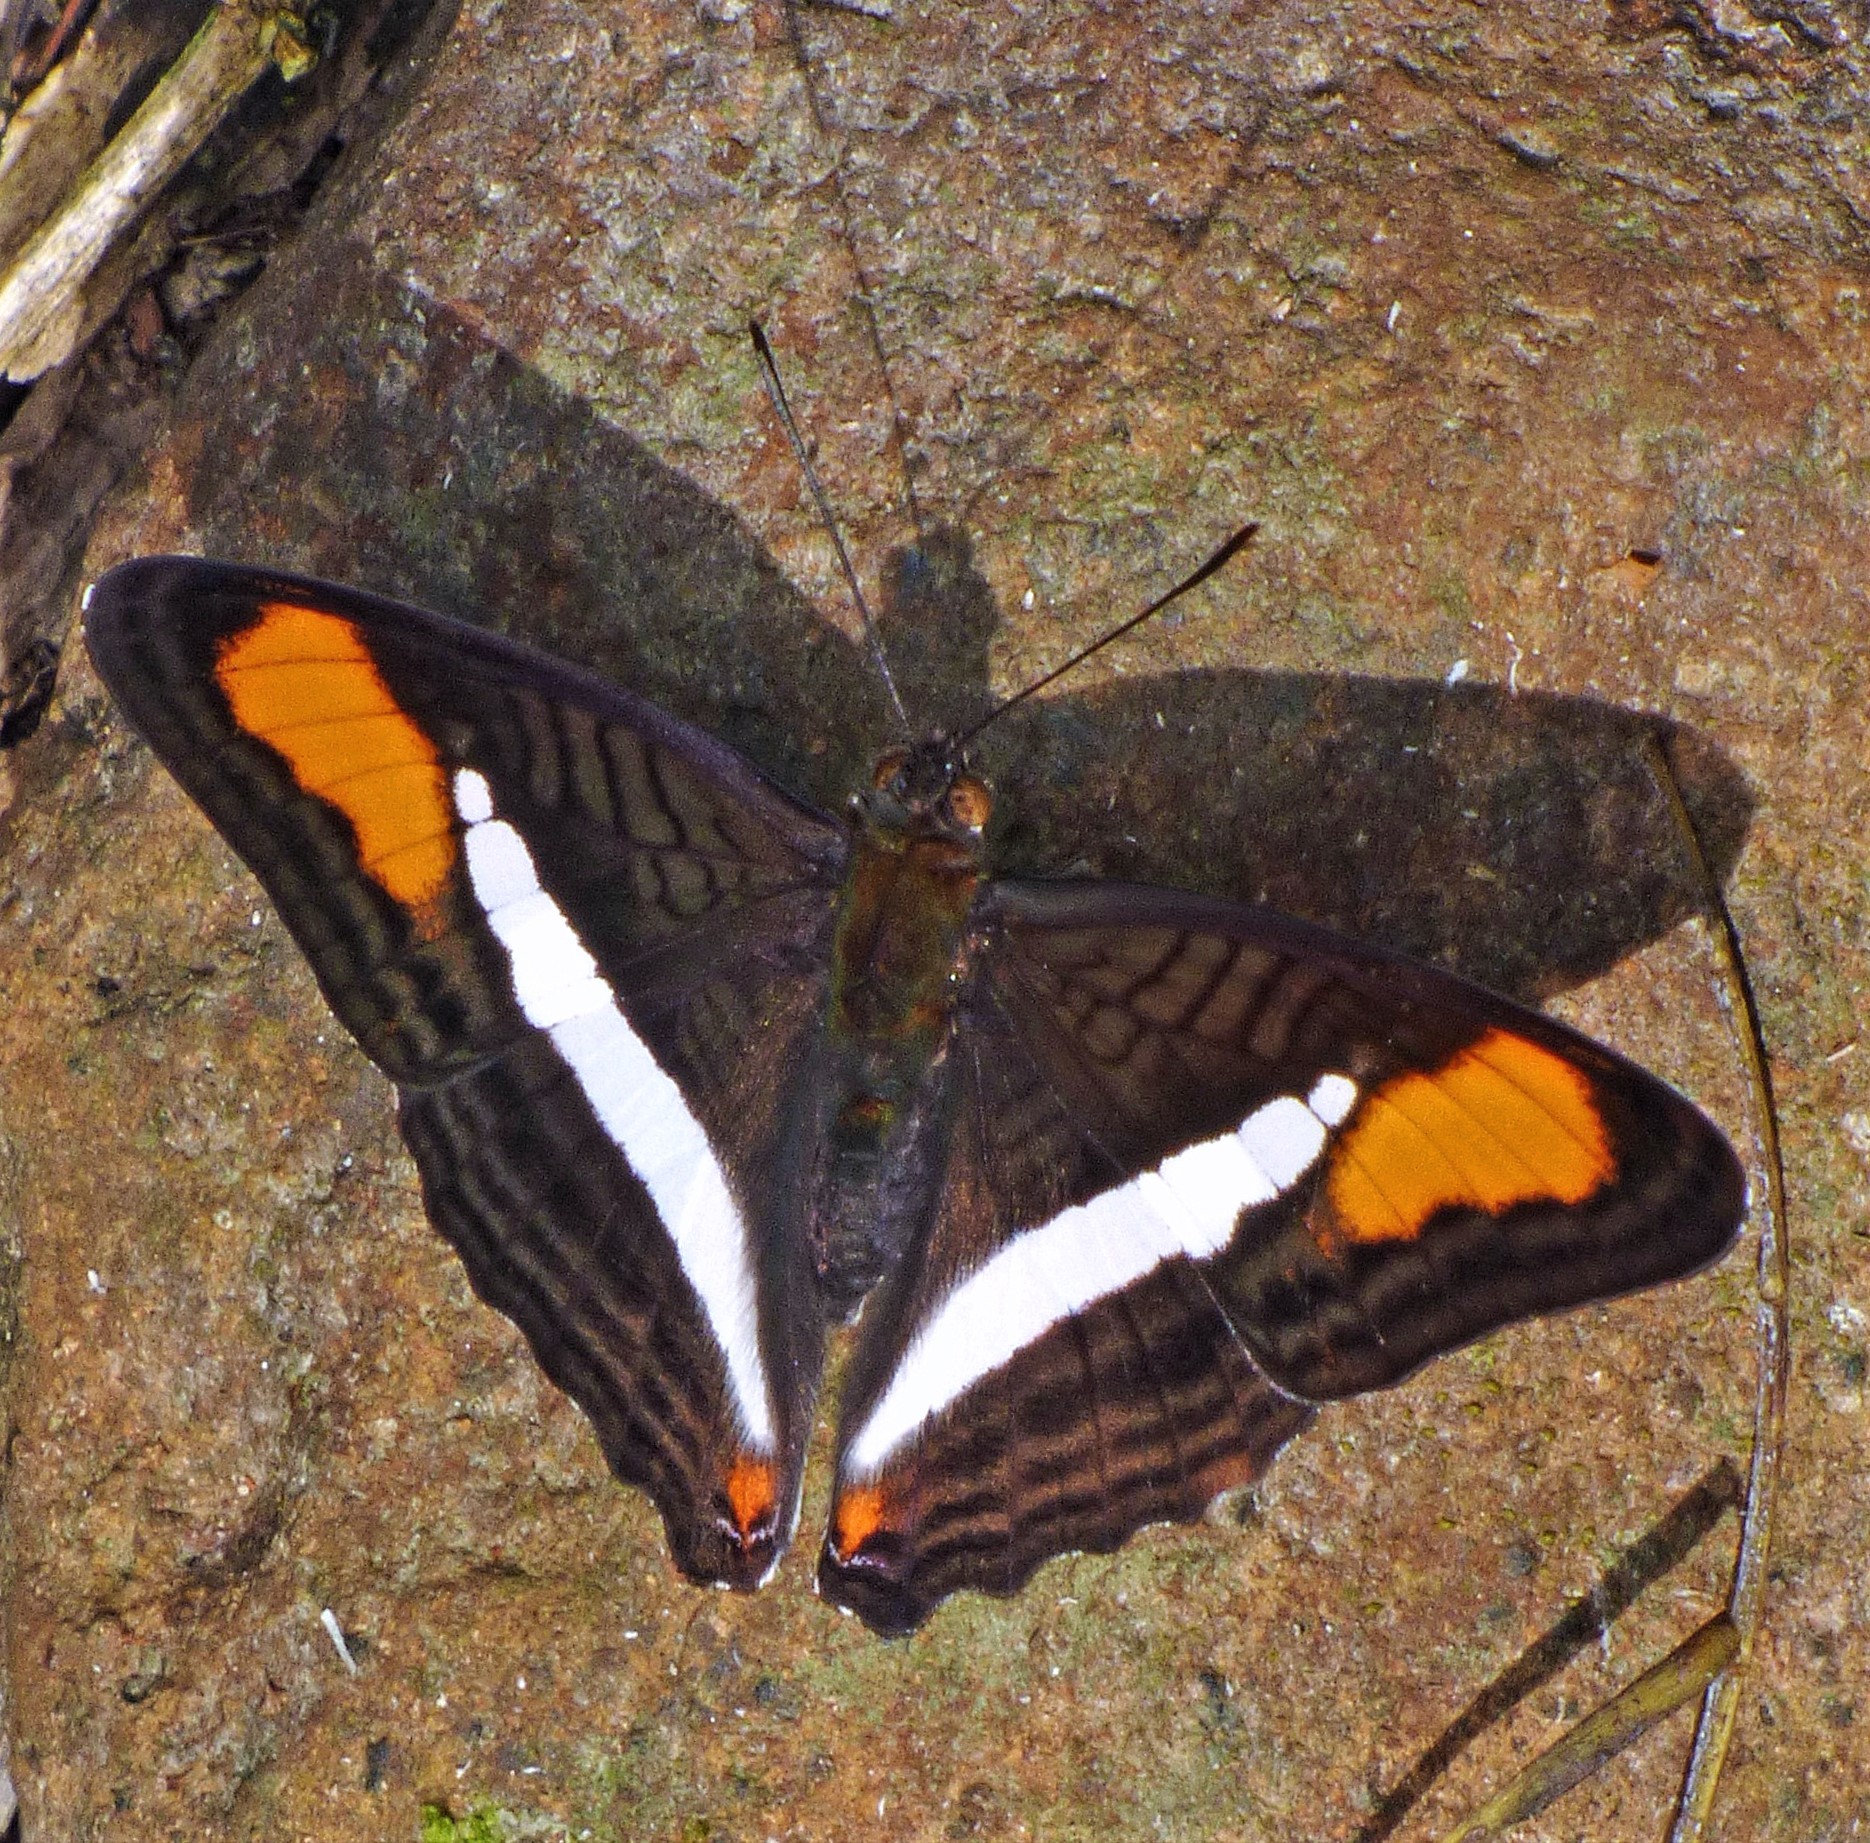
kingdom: Animalia
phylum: Arthropoda
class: Insecta
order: Lepidoptera
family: Nymphalidae
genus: Limenitis
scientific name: Limenitis calliphane
